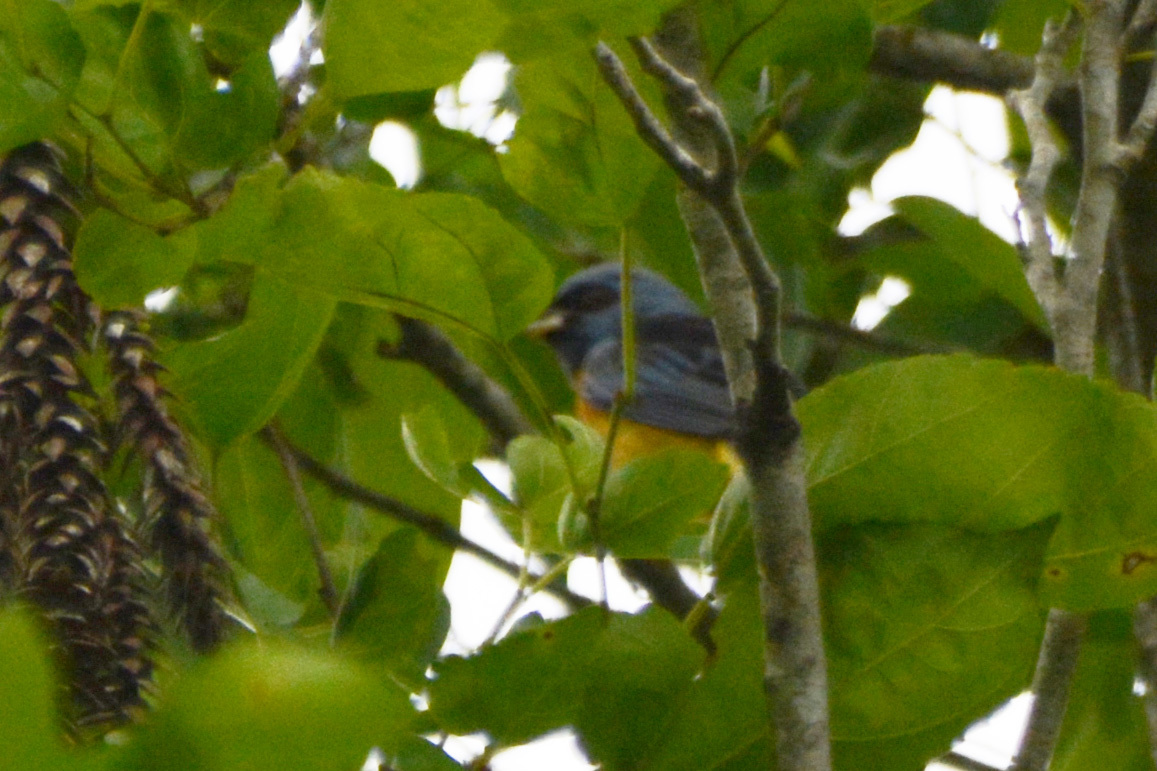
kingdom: Animalia
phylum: Chordata
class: Aves
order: Passeriformes
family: Thraupidae
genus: Rauenia
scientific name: Rauenia bonariensis
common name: Blue-and-yellow tanager
